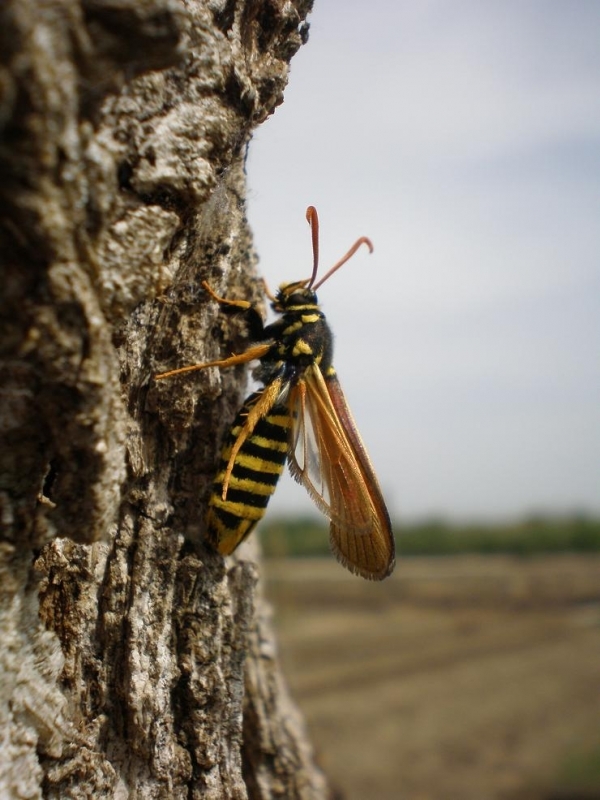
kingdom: Animalia
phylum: Arthropoda
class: Insecta
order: Lepidoptera
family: Sesiidae
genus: Paranthrene
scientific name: Paranthrene tabaniformis
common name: Dusky clearwing
